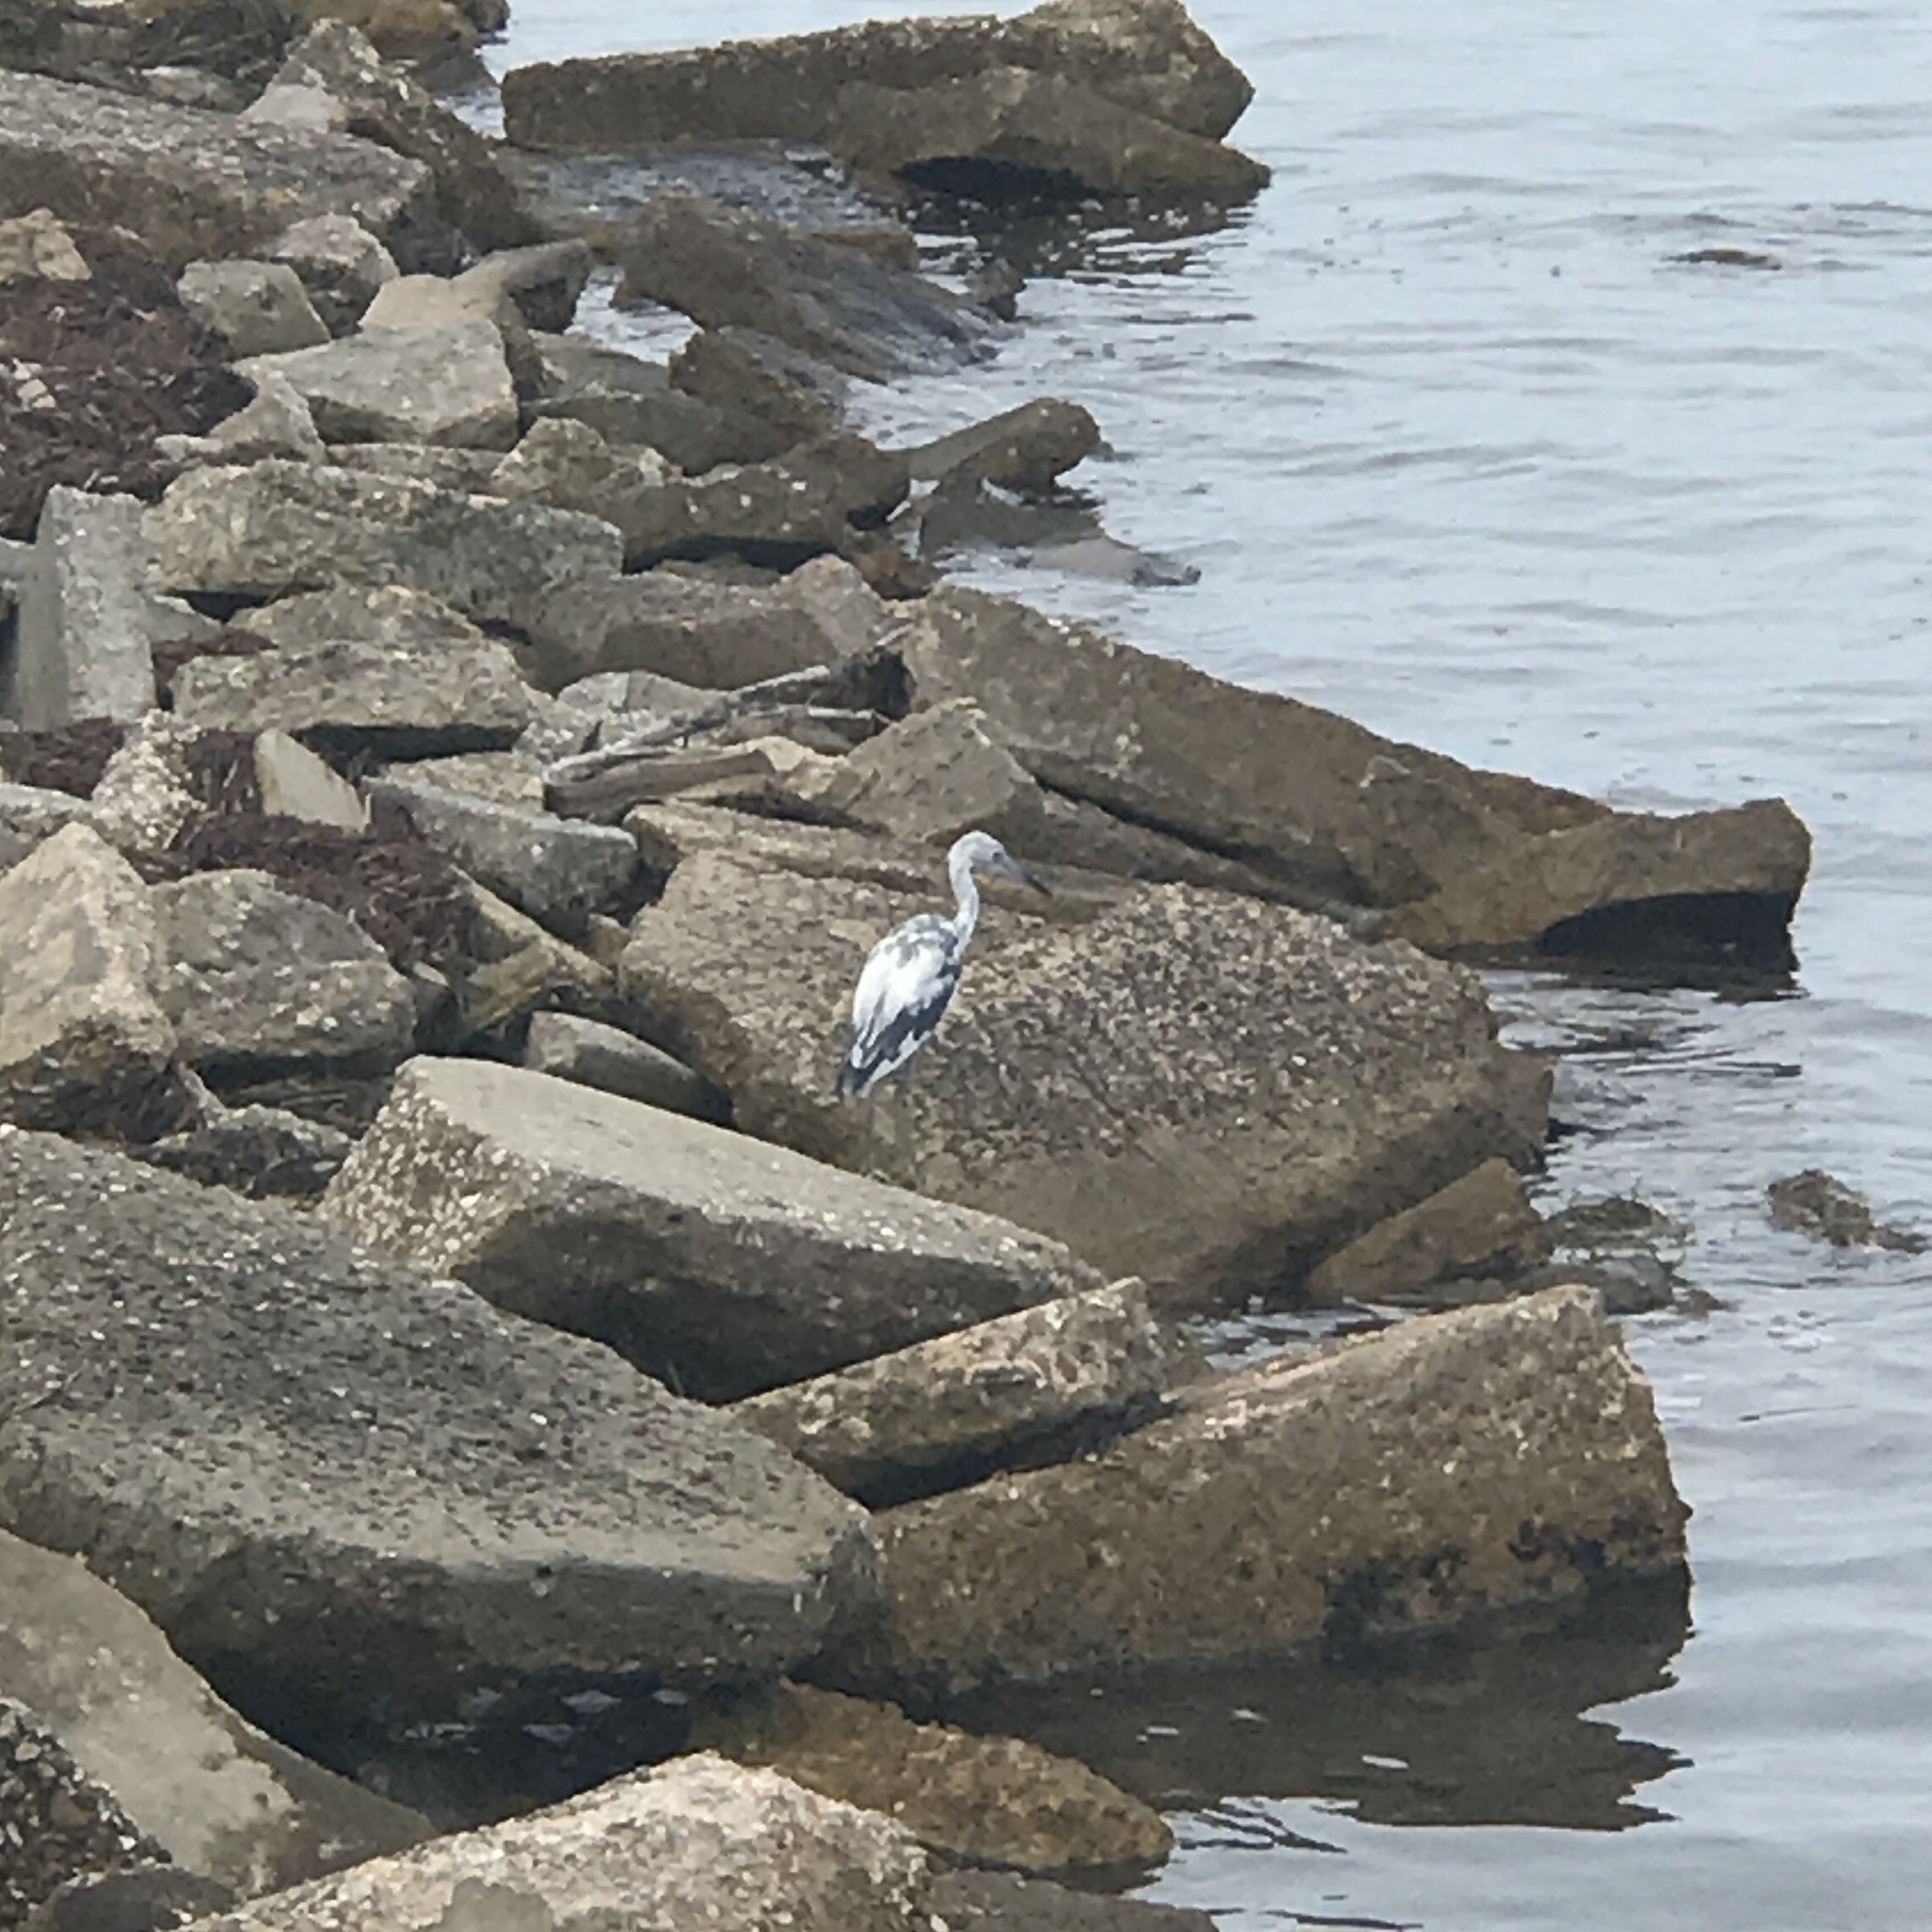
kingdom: Animalia
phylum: Chordata
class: Aves
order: Pelecaniformes
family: Ardeidae
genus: Egretta
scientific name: Egretta caerulea
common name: Little blue heron
